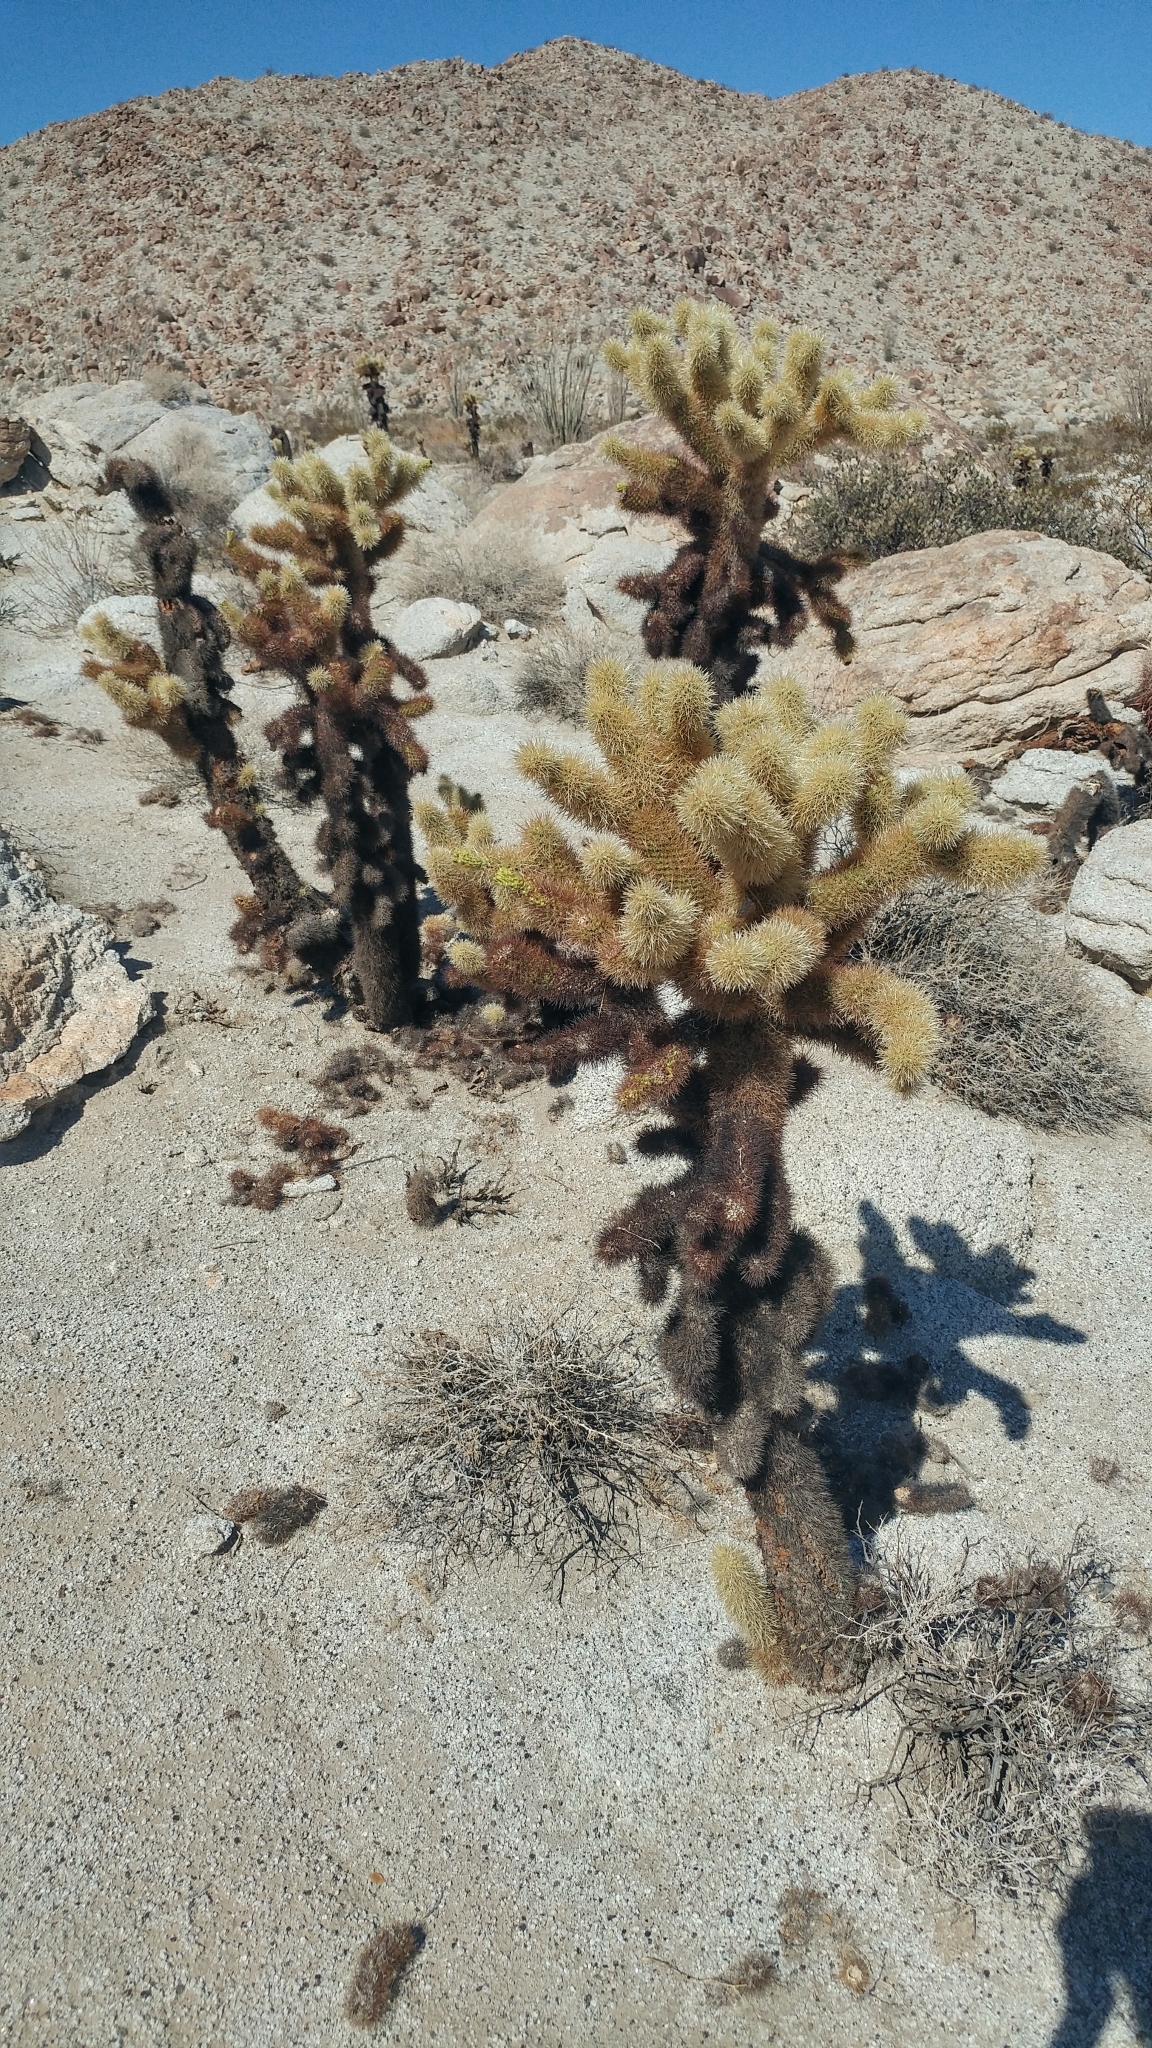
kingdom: Plantae
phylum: Tracheophyta
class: Magnoliopsida
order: Caryophyllales
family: Cactaceae
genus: Cylindropuntia
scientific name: Cylindropuntia fosbergii
